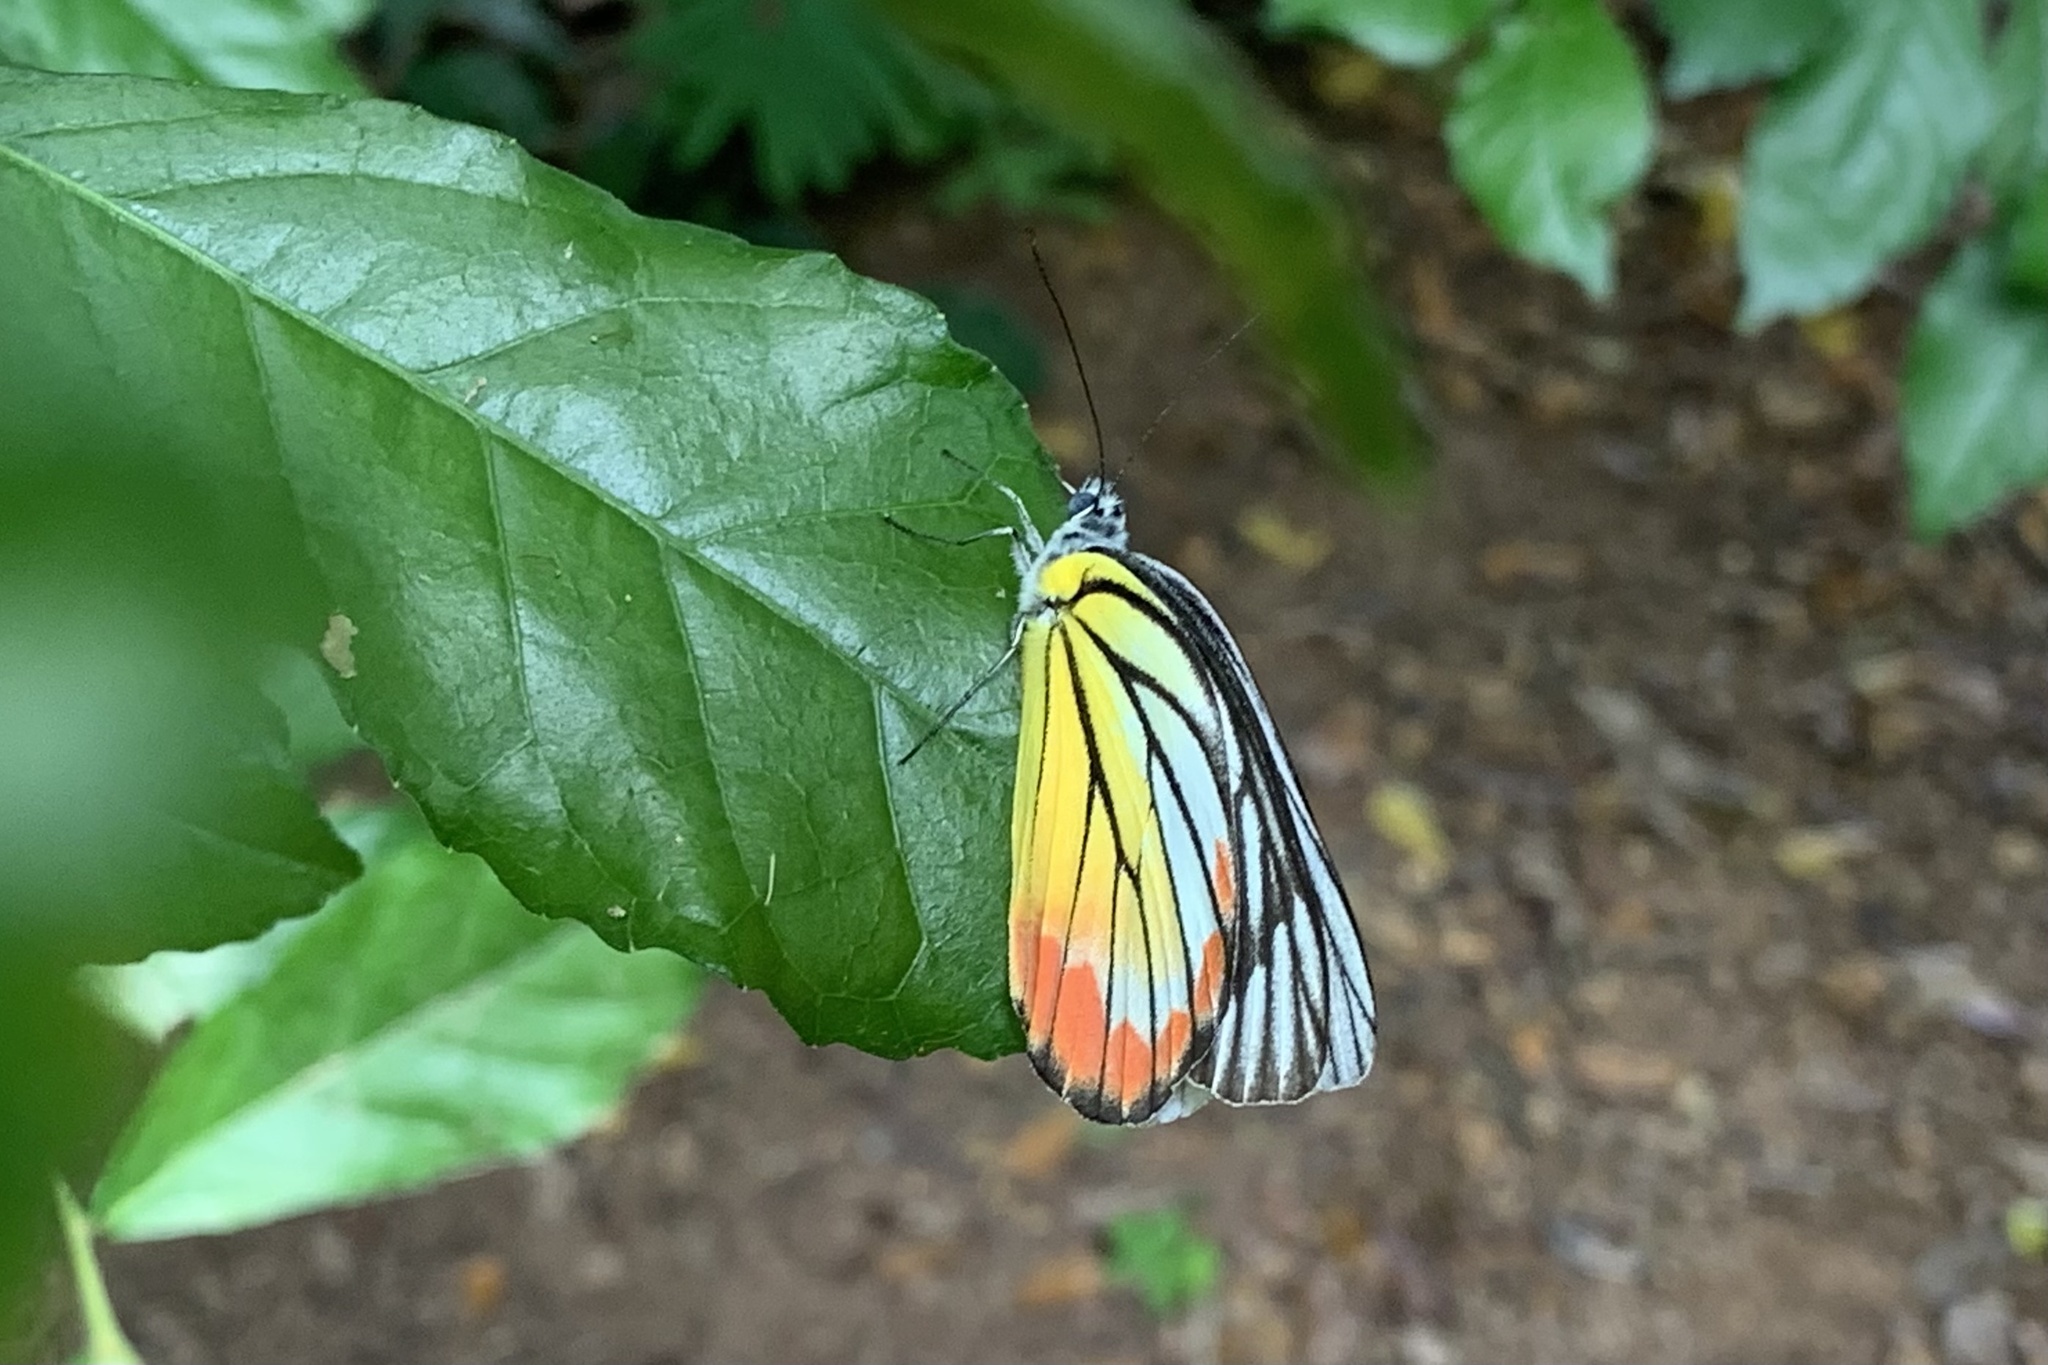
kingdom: Animalia
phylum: Arthropoda
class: Insecta
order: Lepidoptera
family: Pieridae
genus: Delias
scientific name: Delias hyparete
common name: Painted jezebel
